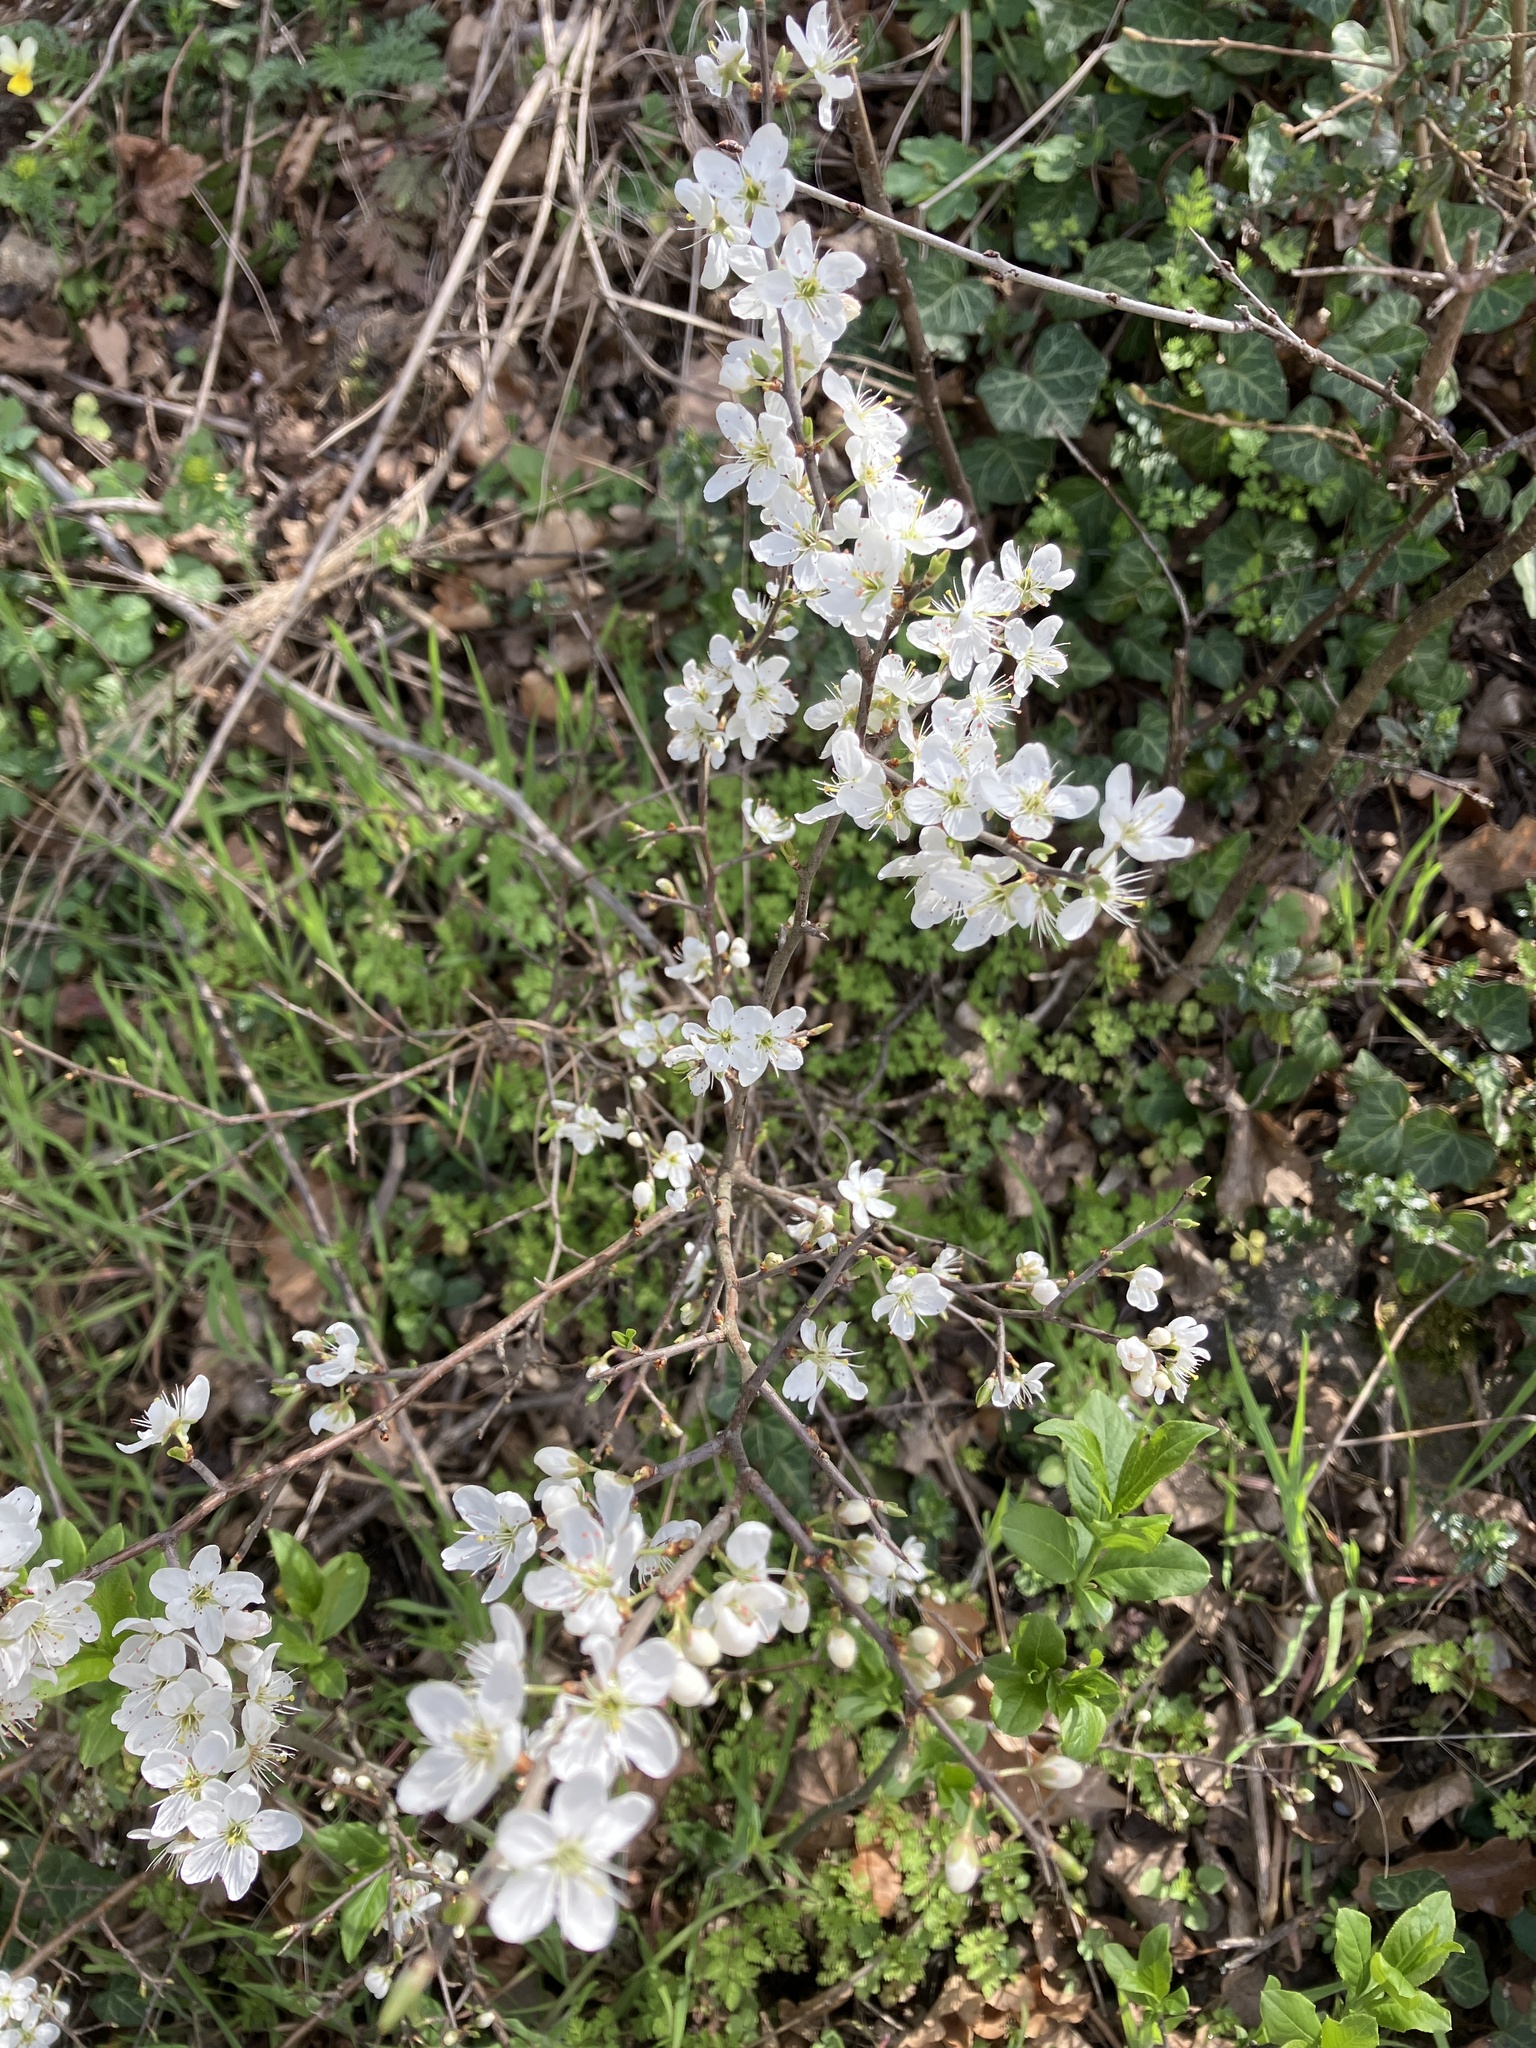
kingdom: Plantae
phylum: Tracheophyta
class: Magnoliopsida
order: Rosales
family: Rosaceae
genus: Prunus
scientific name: Prunus spinosa
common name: Blackthorn
